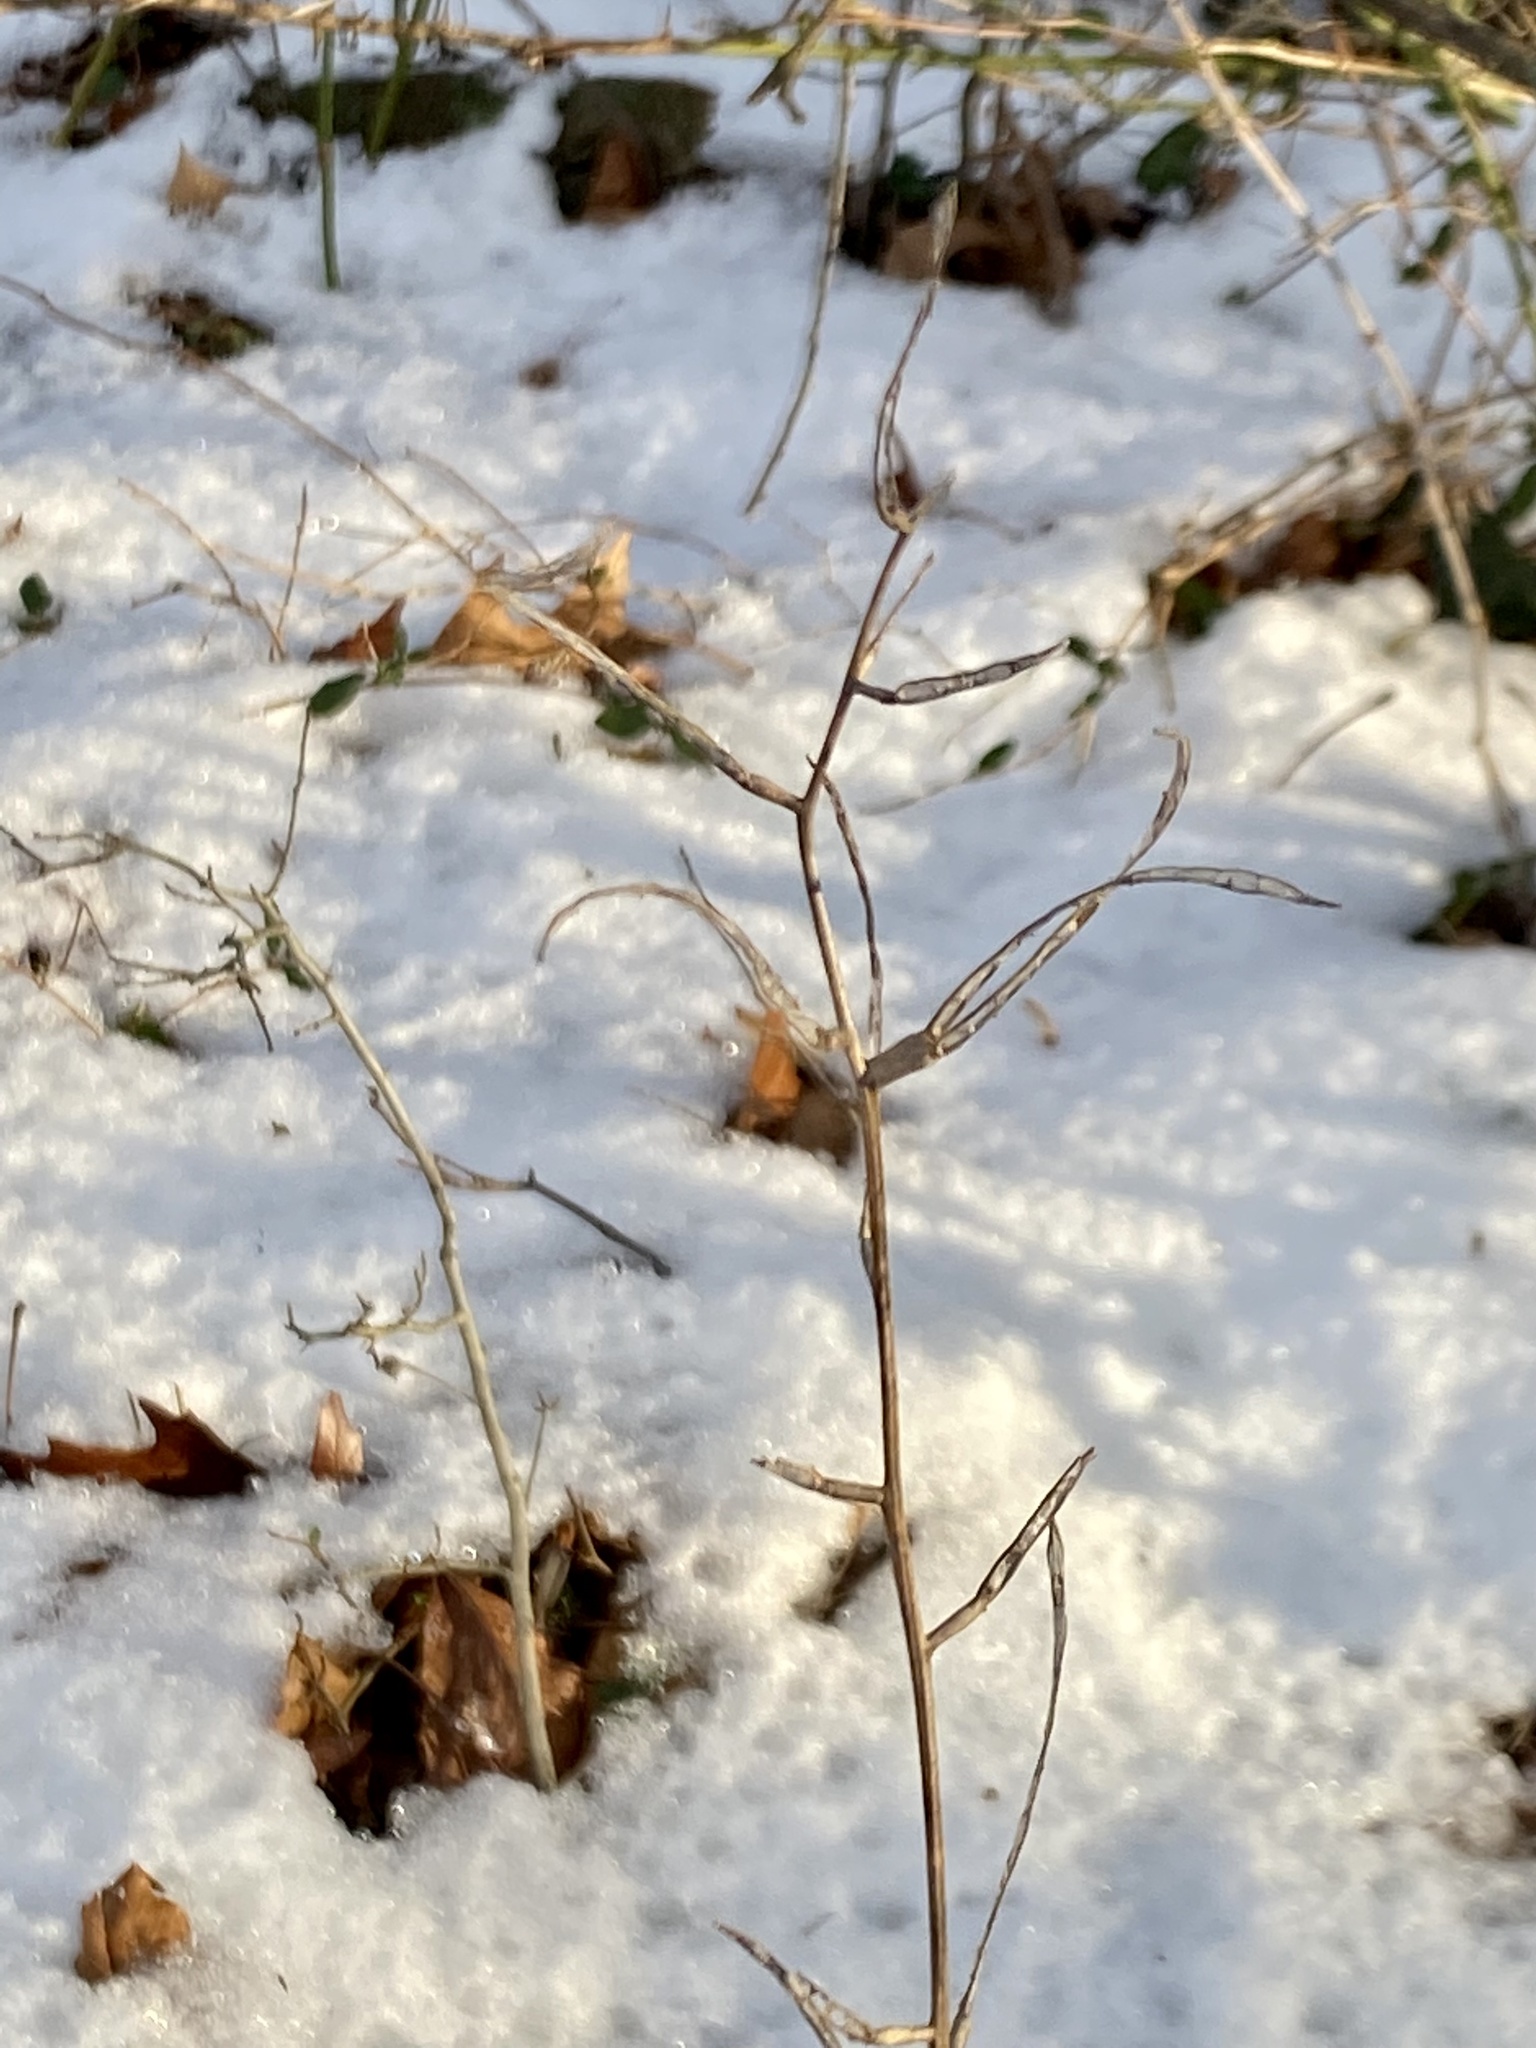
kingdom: Plantae
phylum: Tracheophyta
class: Magnoliopsida
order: Brassicales
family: Brassicaceae
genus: Alliaria
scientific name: Alliaria petiolata
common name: Garlic mustard
